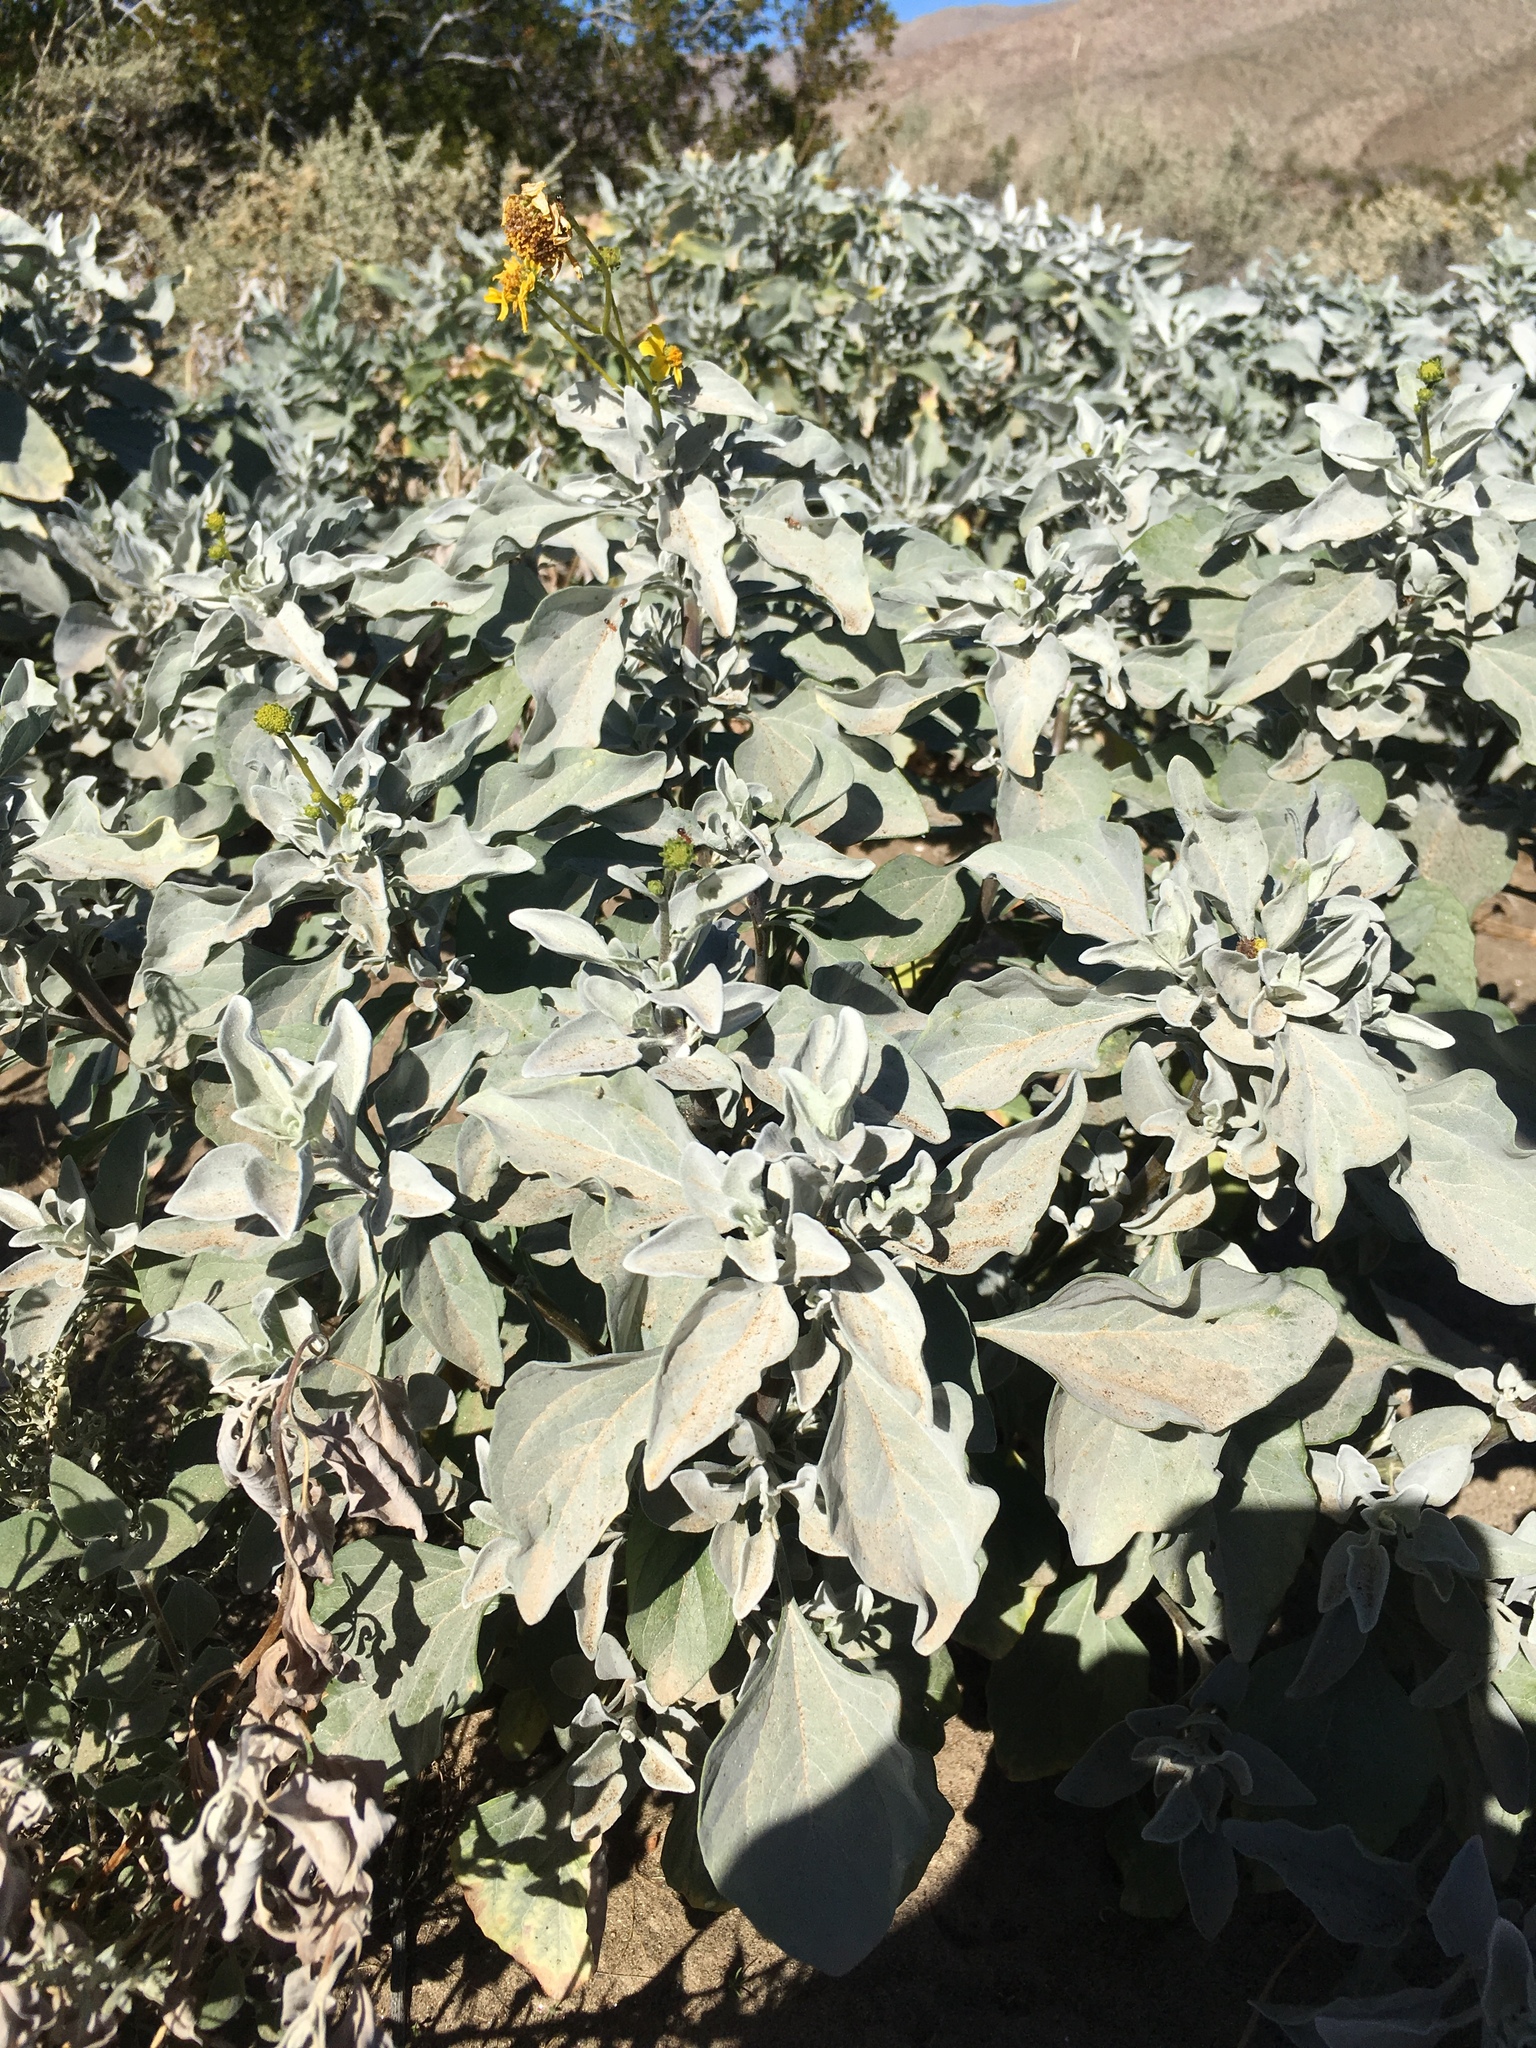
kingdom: Plantae
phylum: Tracheophyta
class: Magnoliopsida
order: Asterales
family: Asteraceae
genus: Encelia
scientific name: Encelia farinosa
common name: Brittlebush
